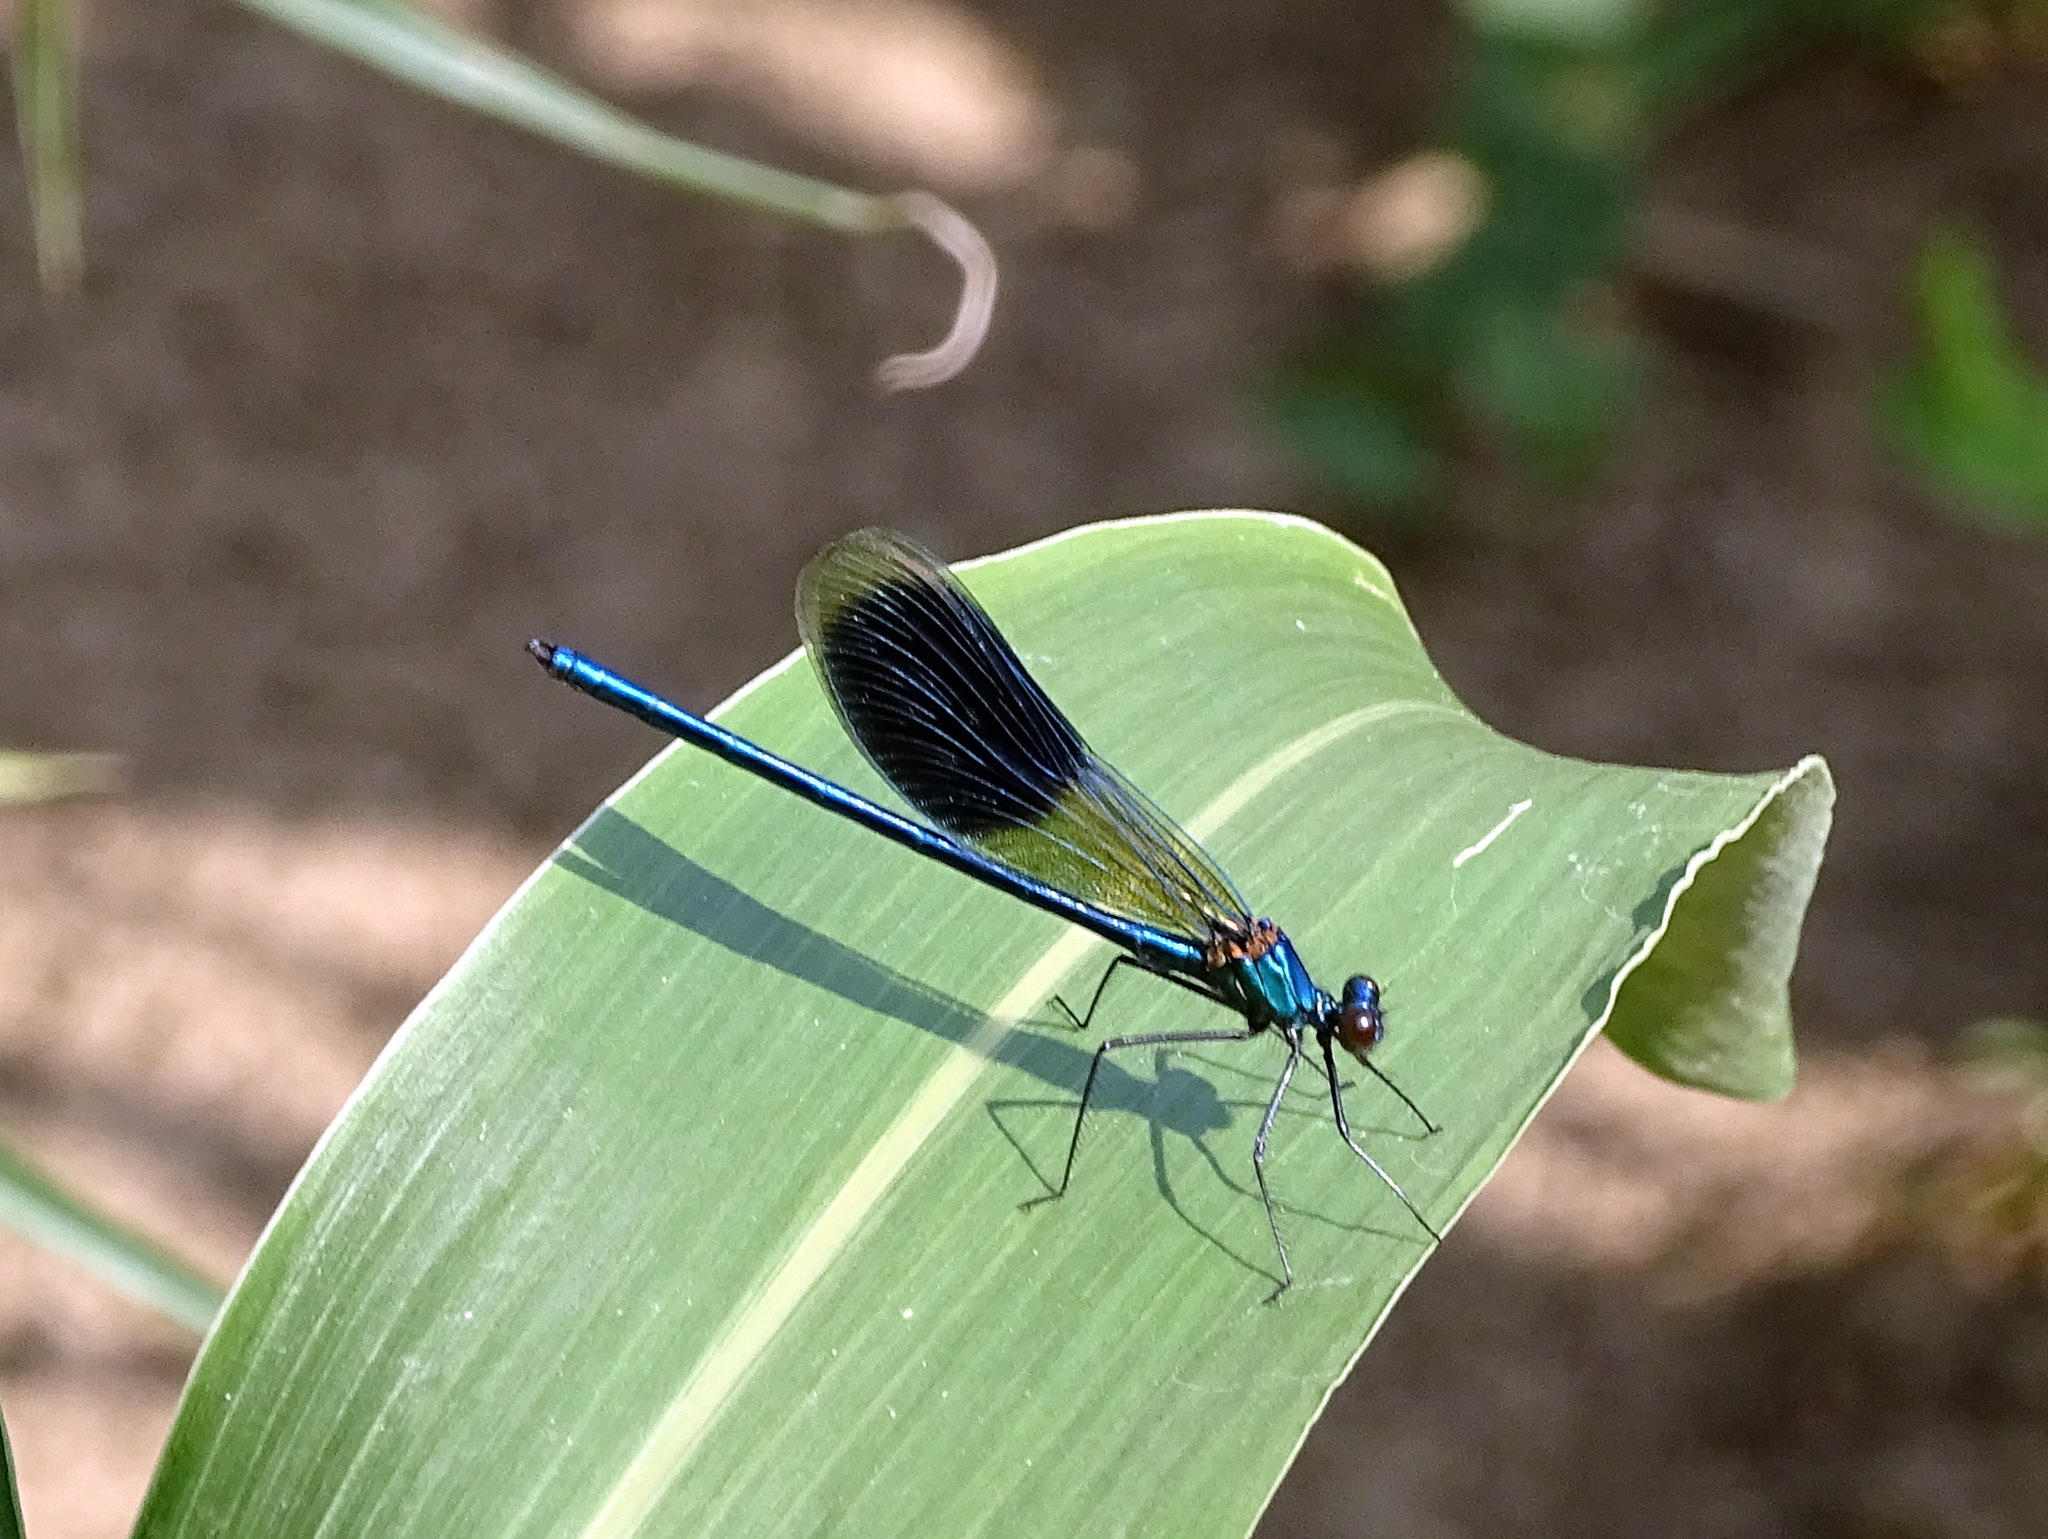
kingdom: Animalia
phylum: Arthropoda
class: Insecta
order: Odonata
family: Calopterygidae
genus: Calopteryx
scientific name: Calopteryx splendens
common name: Banded demoiselle
